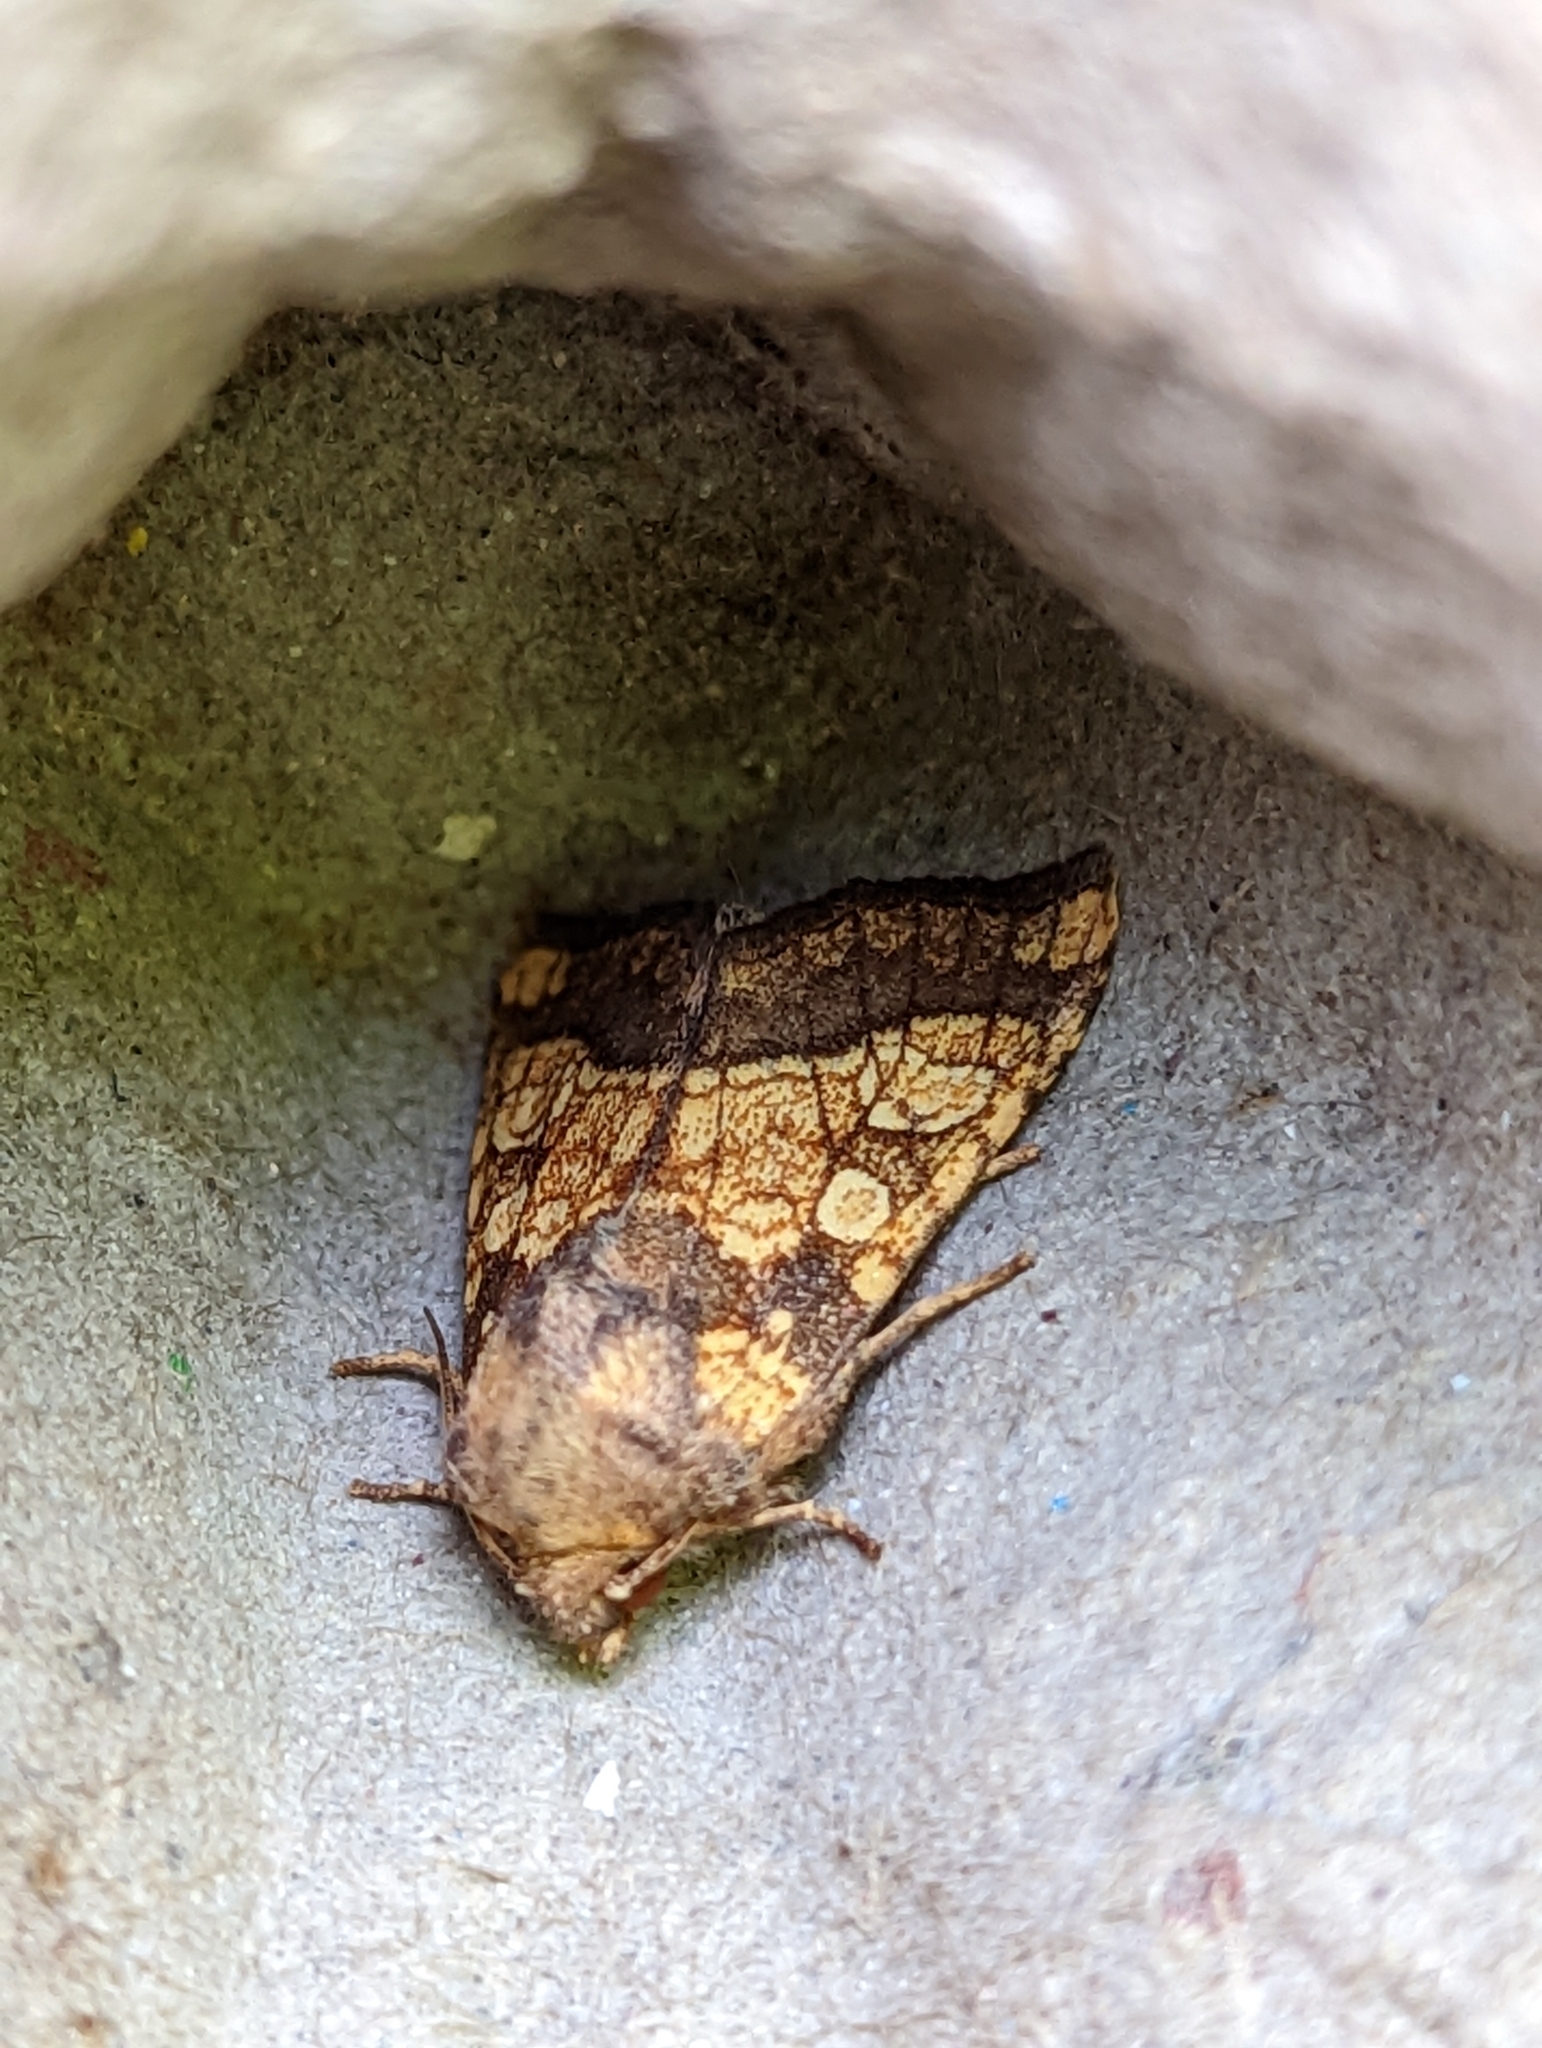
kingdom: Animalia
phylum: Arthropoda
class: Insecta
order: Lepidoptera
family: Noctuidae
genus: Gortyna
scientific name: Gortyna flavago
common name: Frosted orange
